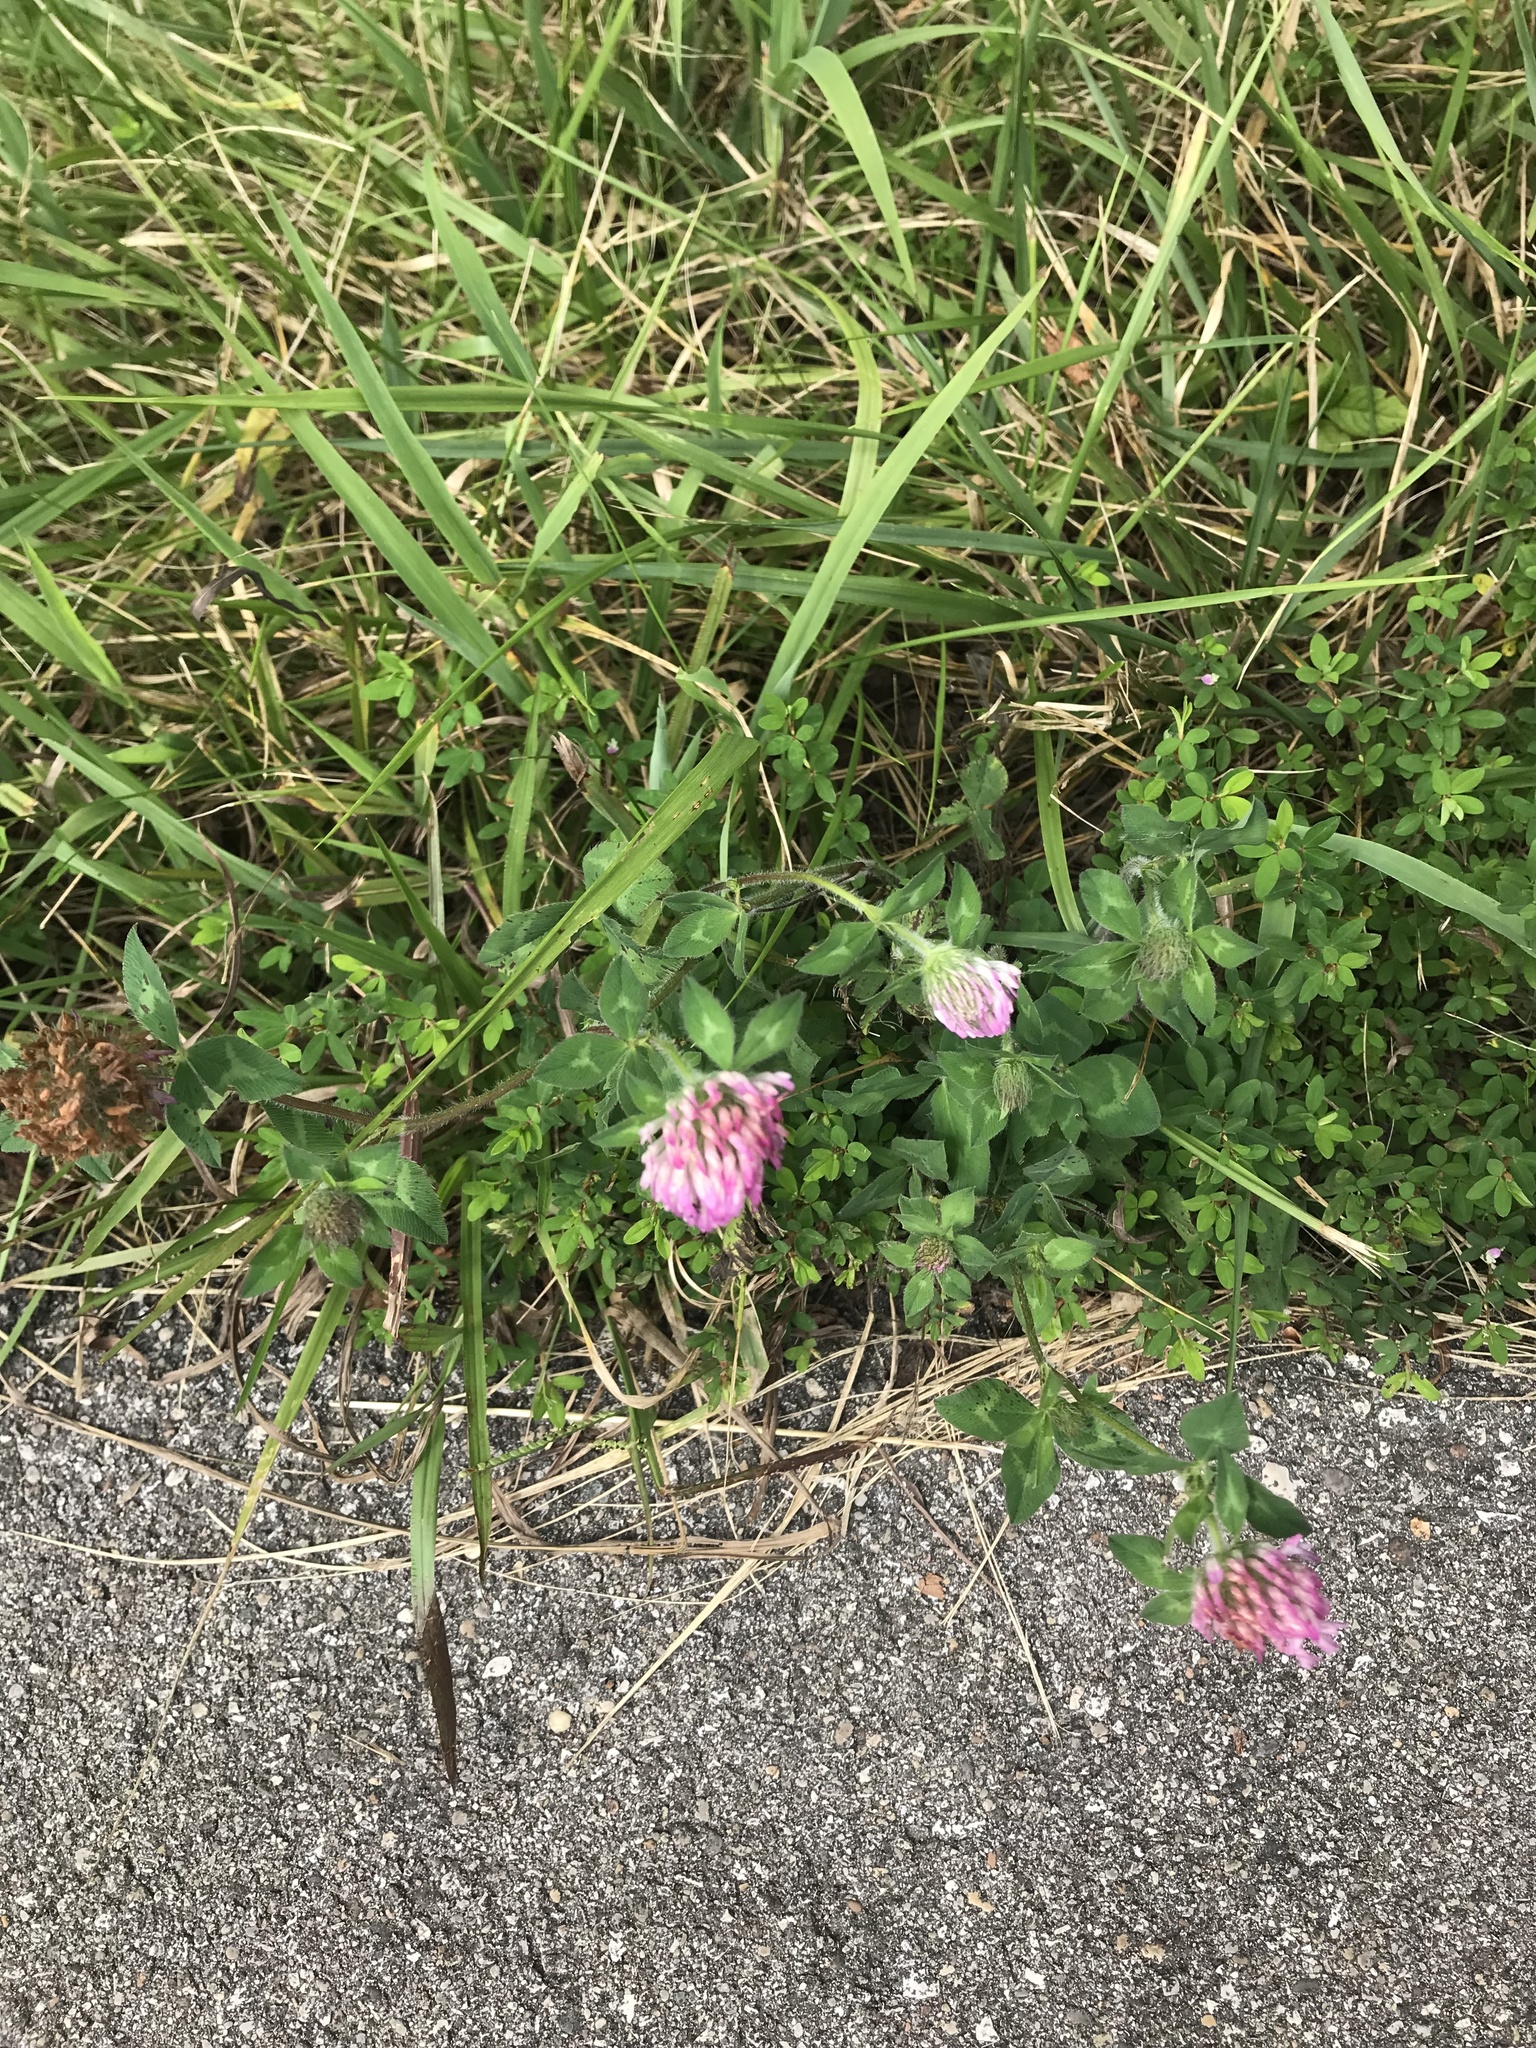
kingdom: Plantae
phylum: Tracheophyta
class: Magnoliopsida
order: Fabales
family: Fabaceae
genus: Trifolium
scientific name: Trifolium pratense
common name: Red clover
